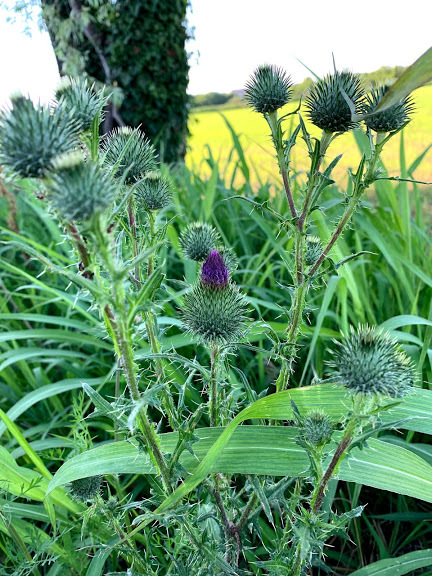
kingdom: Plantae
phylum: Tracheophyta
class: Magnoliopsida
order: Asterales
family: Asteraceae
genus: Cirsium
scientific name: Cirsium vulgare
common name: Bull thistle
